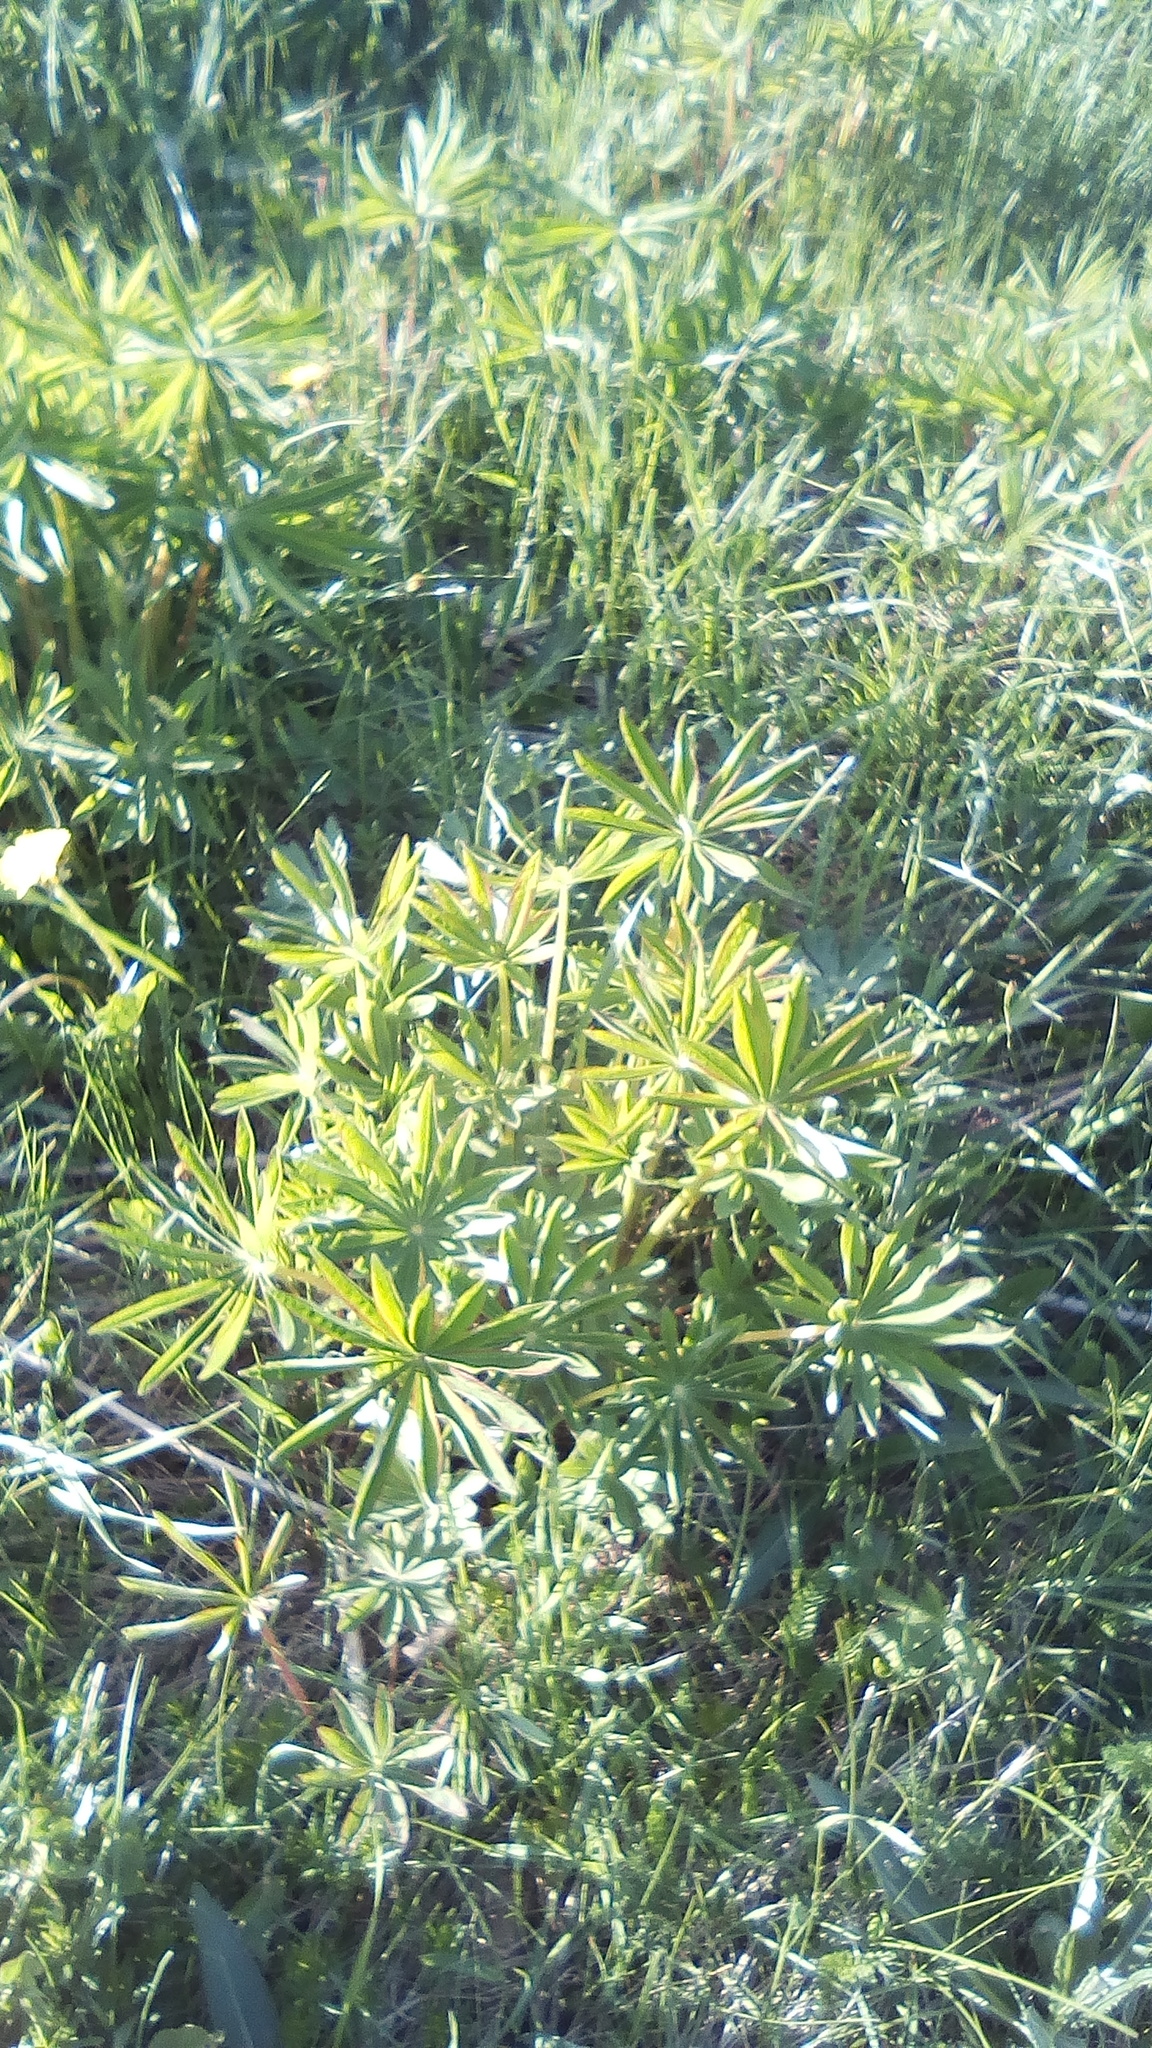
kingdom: Plantae
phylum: Tracheophyta
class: Magnoliopsida
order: Fabales
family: Fabaceae
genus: Lupinus
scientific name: Lupinus polyphyllus
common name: Garden lupin
